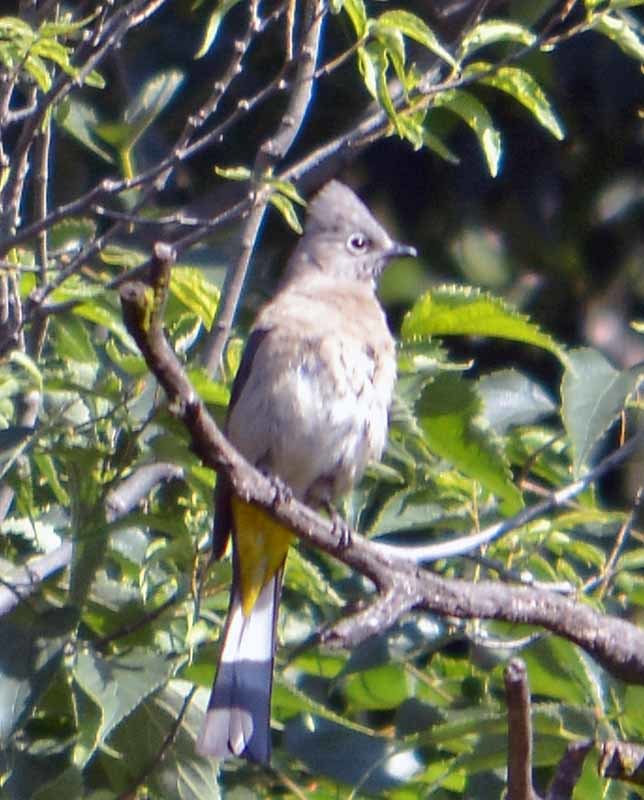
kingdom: Animalia
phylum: Chordata
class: Aves
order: Passeriformes
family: Ptilogonatidae
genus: Ptilogonys
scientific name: Ptilogonys cinereus
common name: Gray silky-flycatcher
